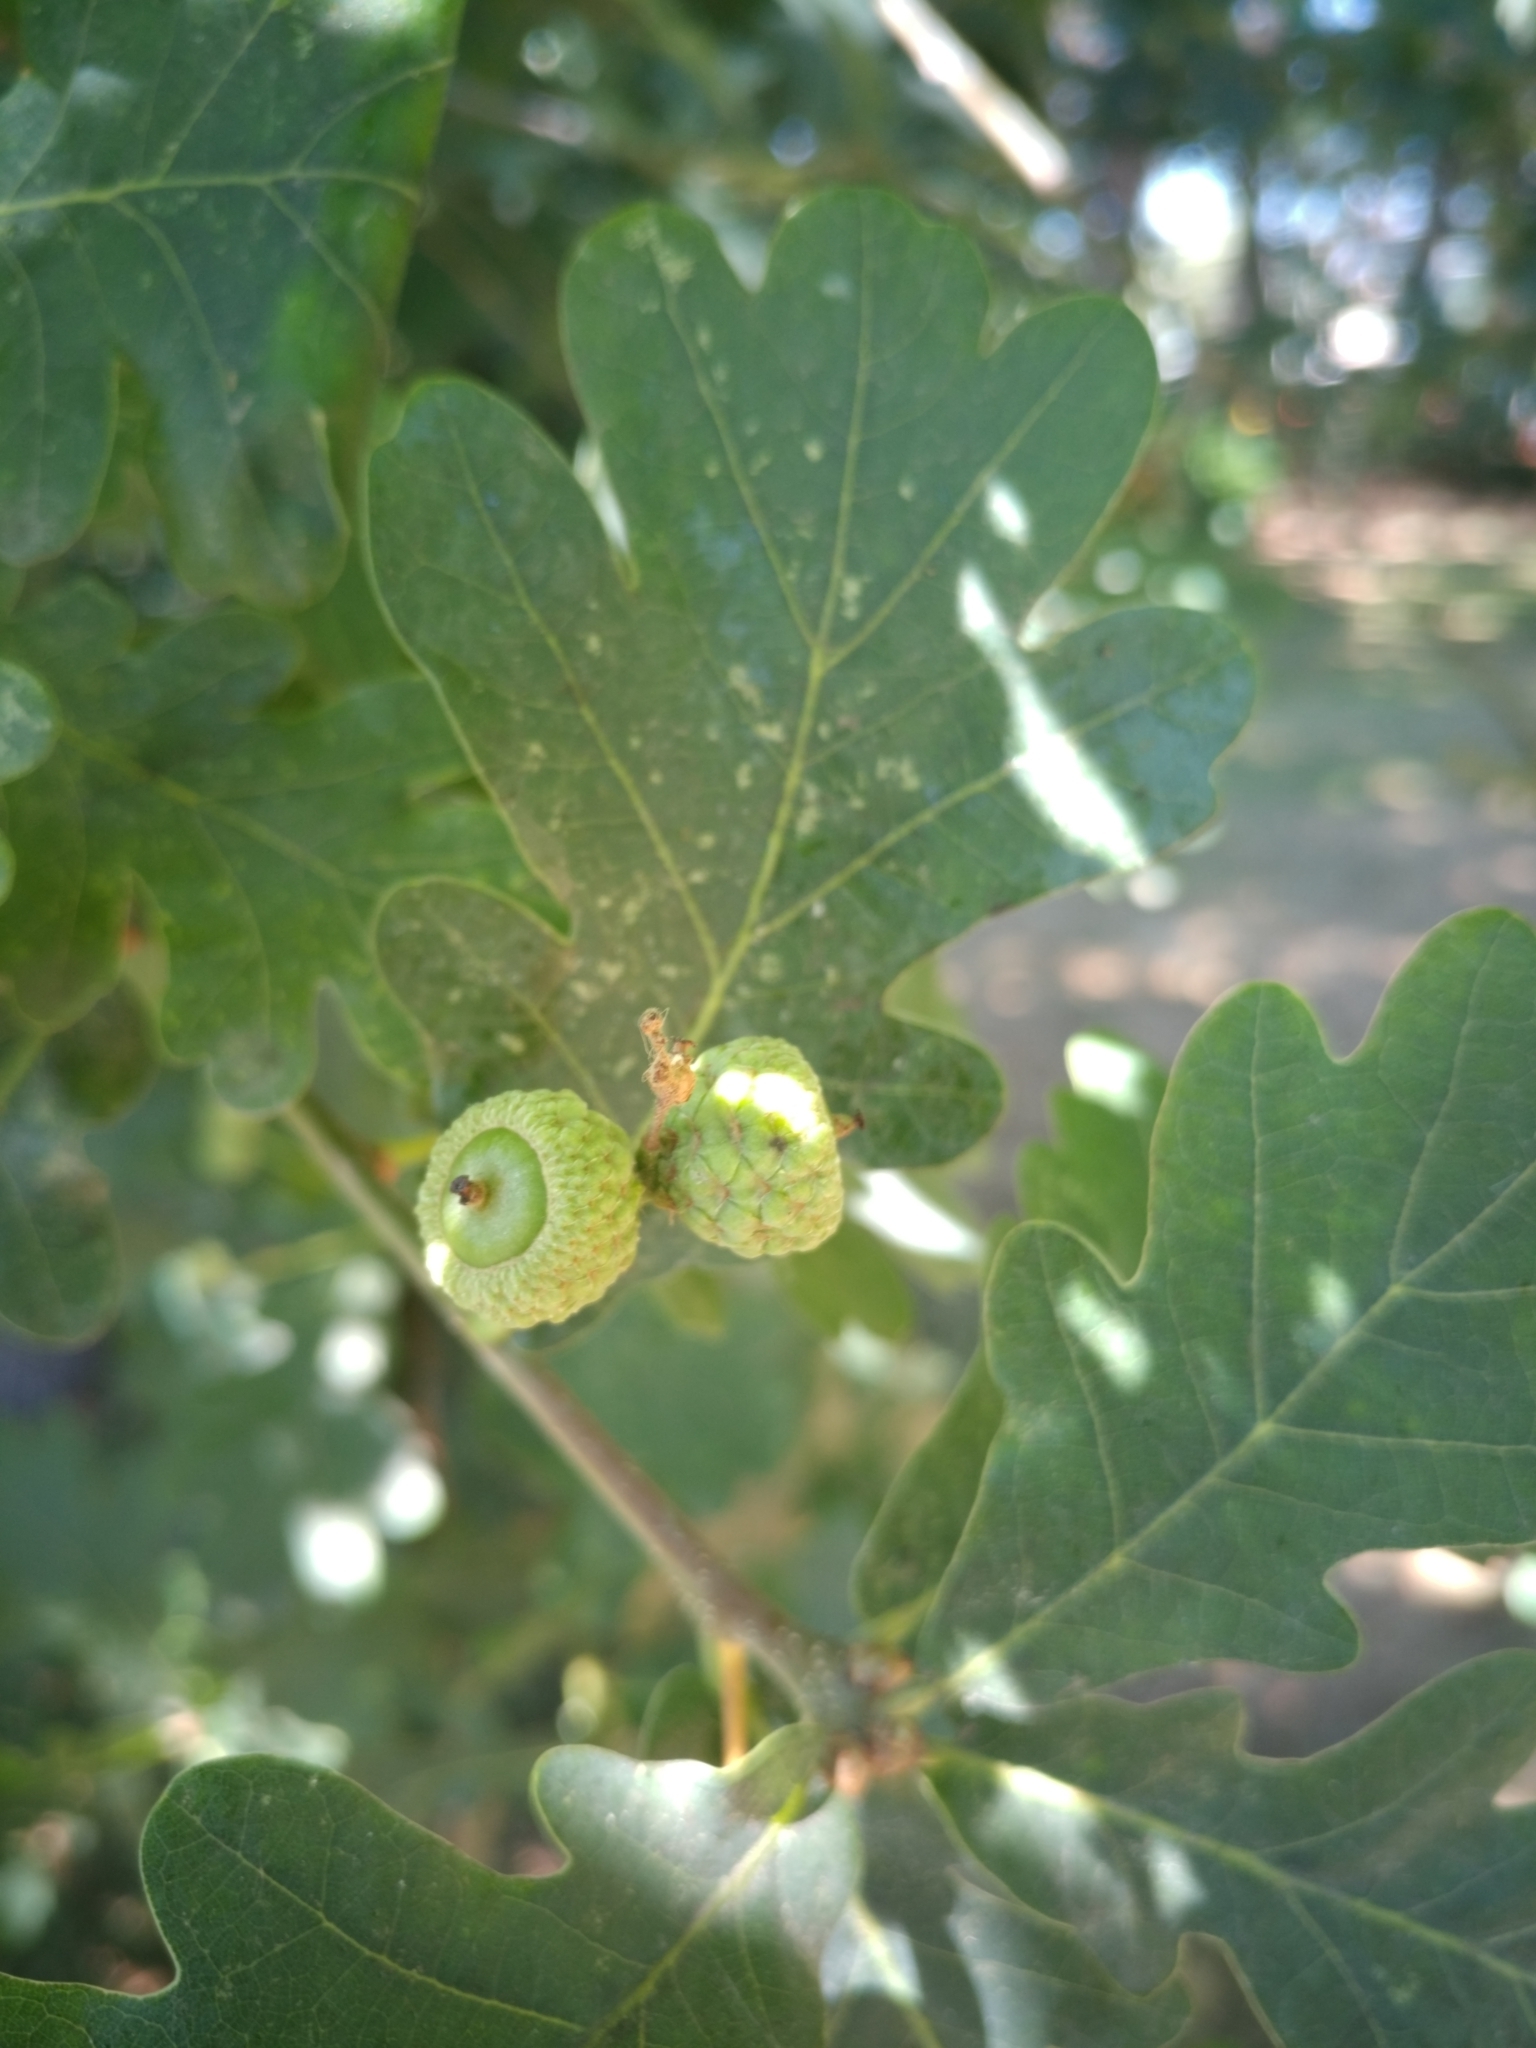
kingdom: Plantae
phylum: Tracheophyta
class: Magnoliopsida
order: Fagales
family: Fagaceae
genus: Quercus
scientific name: Quercus robur
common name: Pedunculate oak
